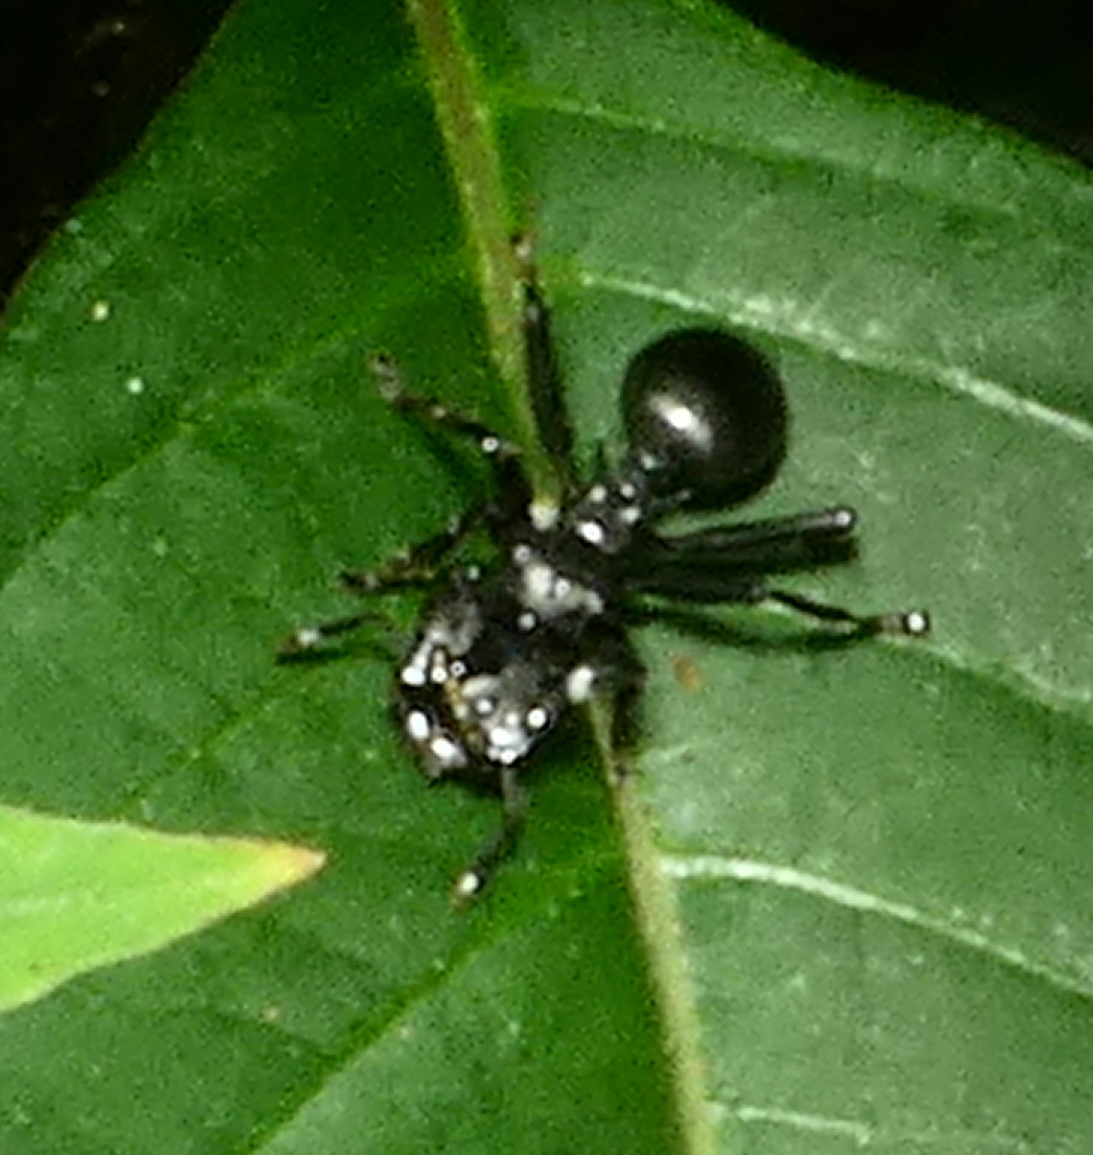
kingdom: Animalia
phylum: Arthropoda
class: Insecta
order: Hymenoptera
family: Formicidae
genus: Cephalotes
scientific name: Cephalotes atratus
